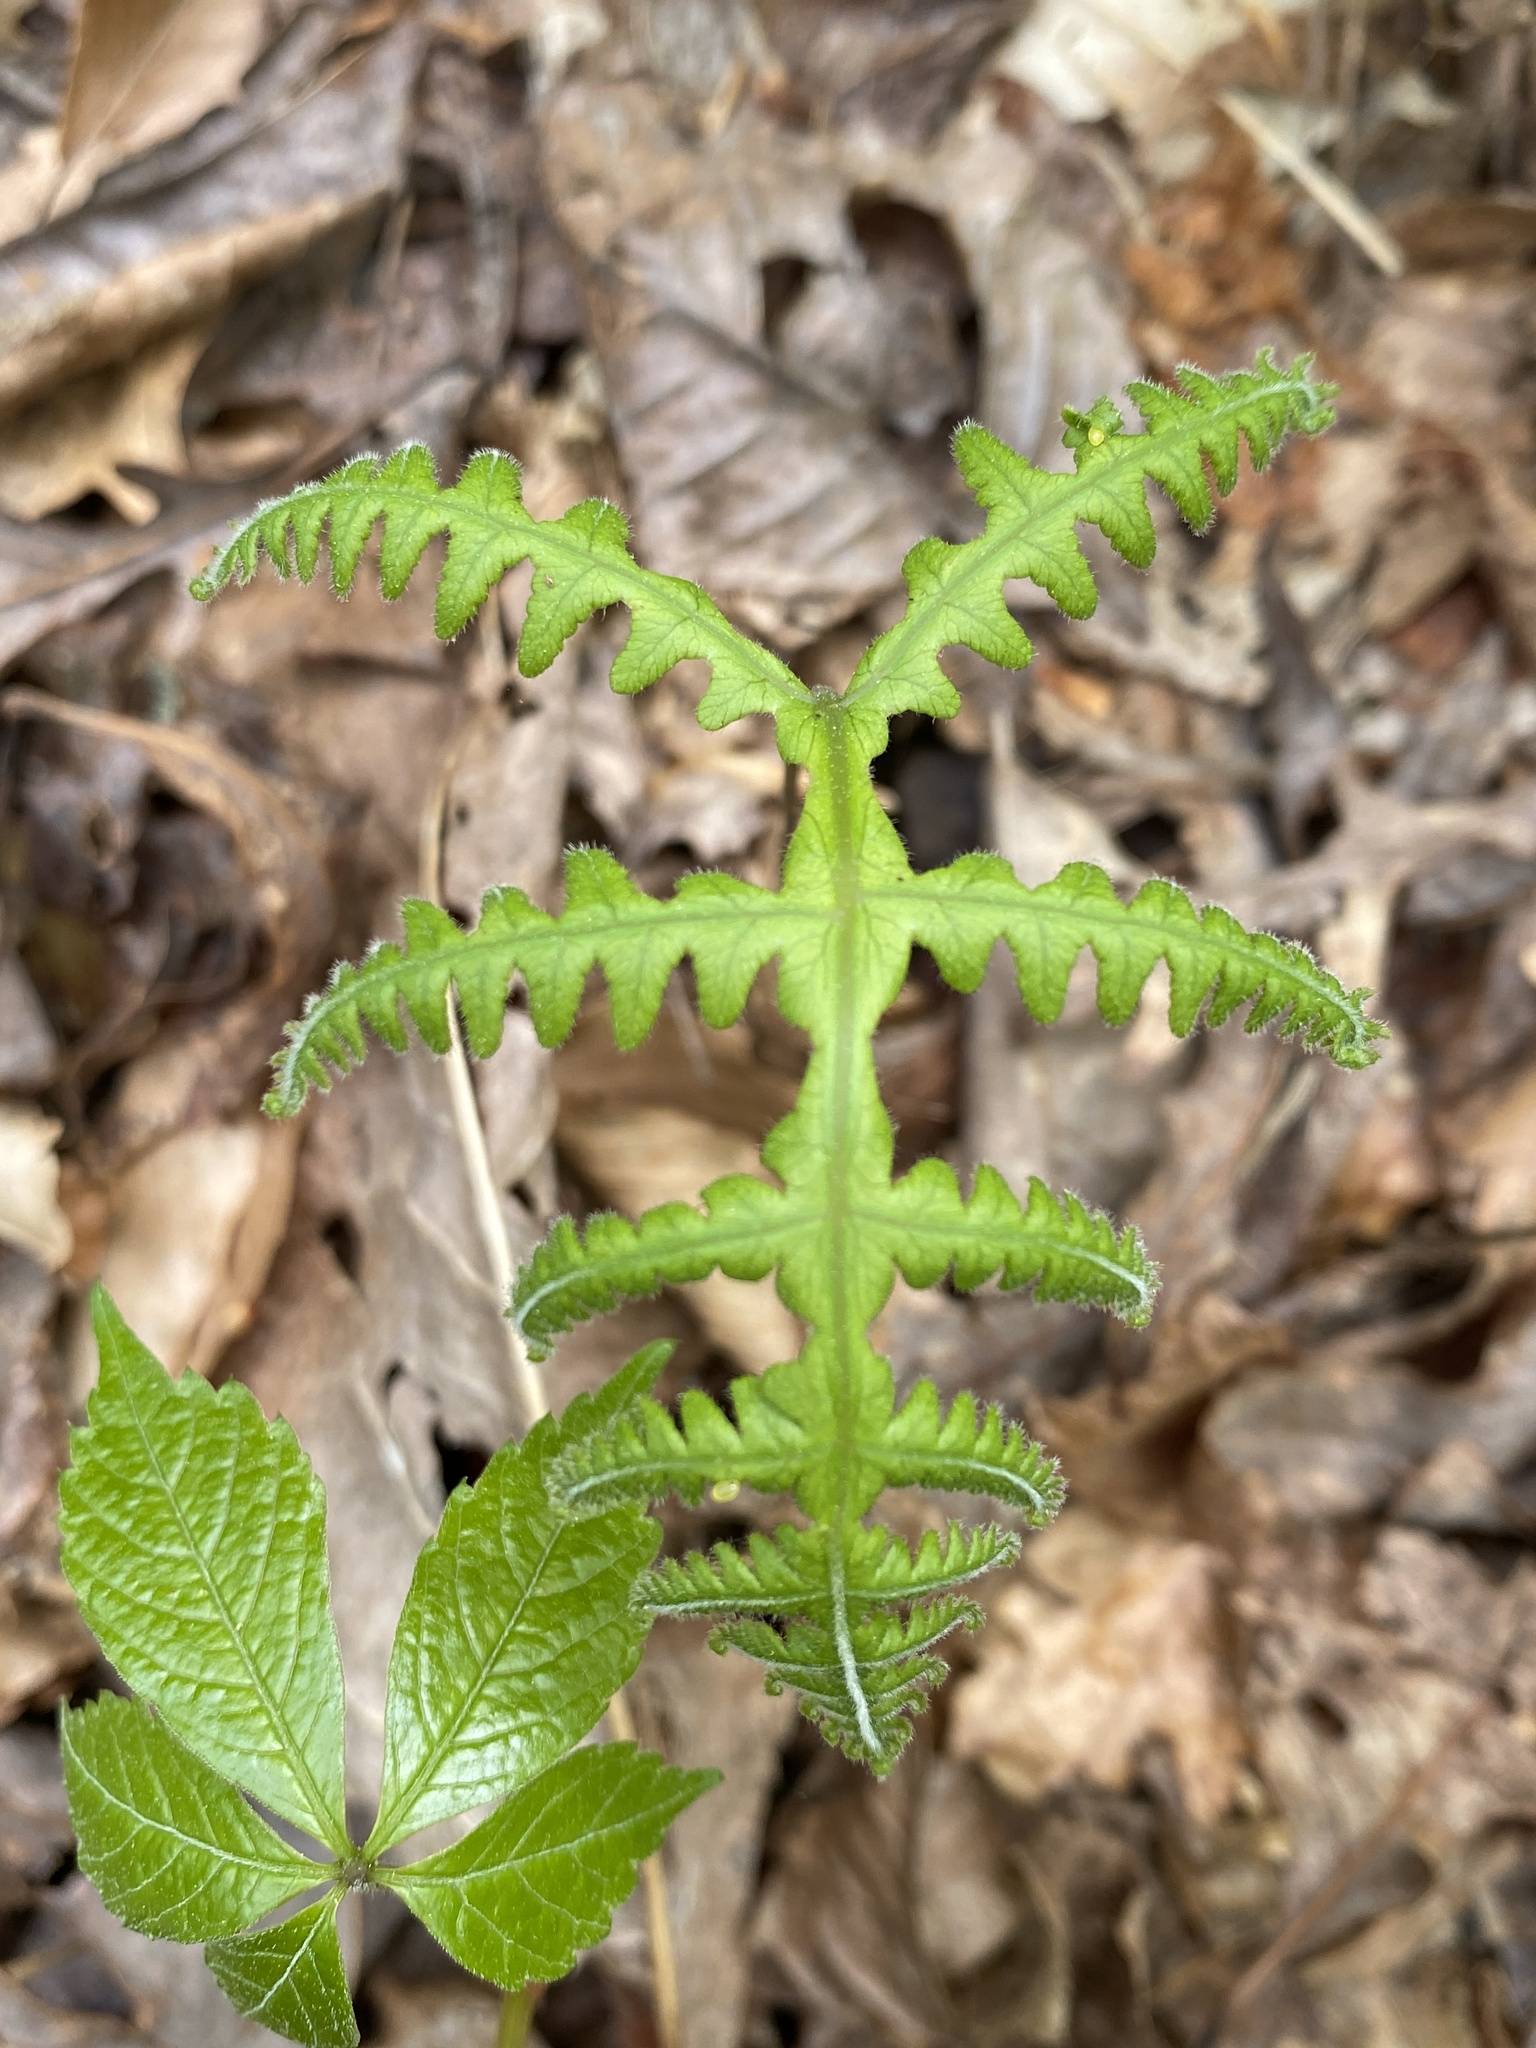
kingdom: Plantae
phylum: Tracheophyta
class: Polypodiopsida
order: Polypodiales
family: Thelypteridaceae
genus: Phegopteris
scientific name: Phegopteris hexagonoptera
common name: Broad beech fern
